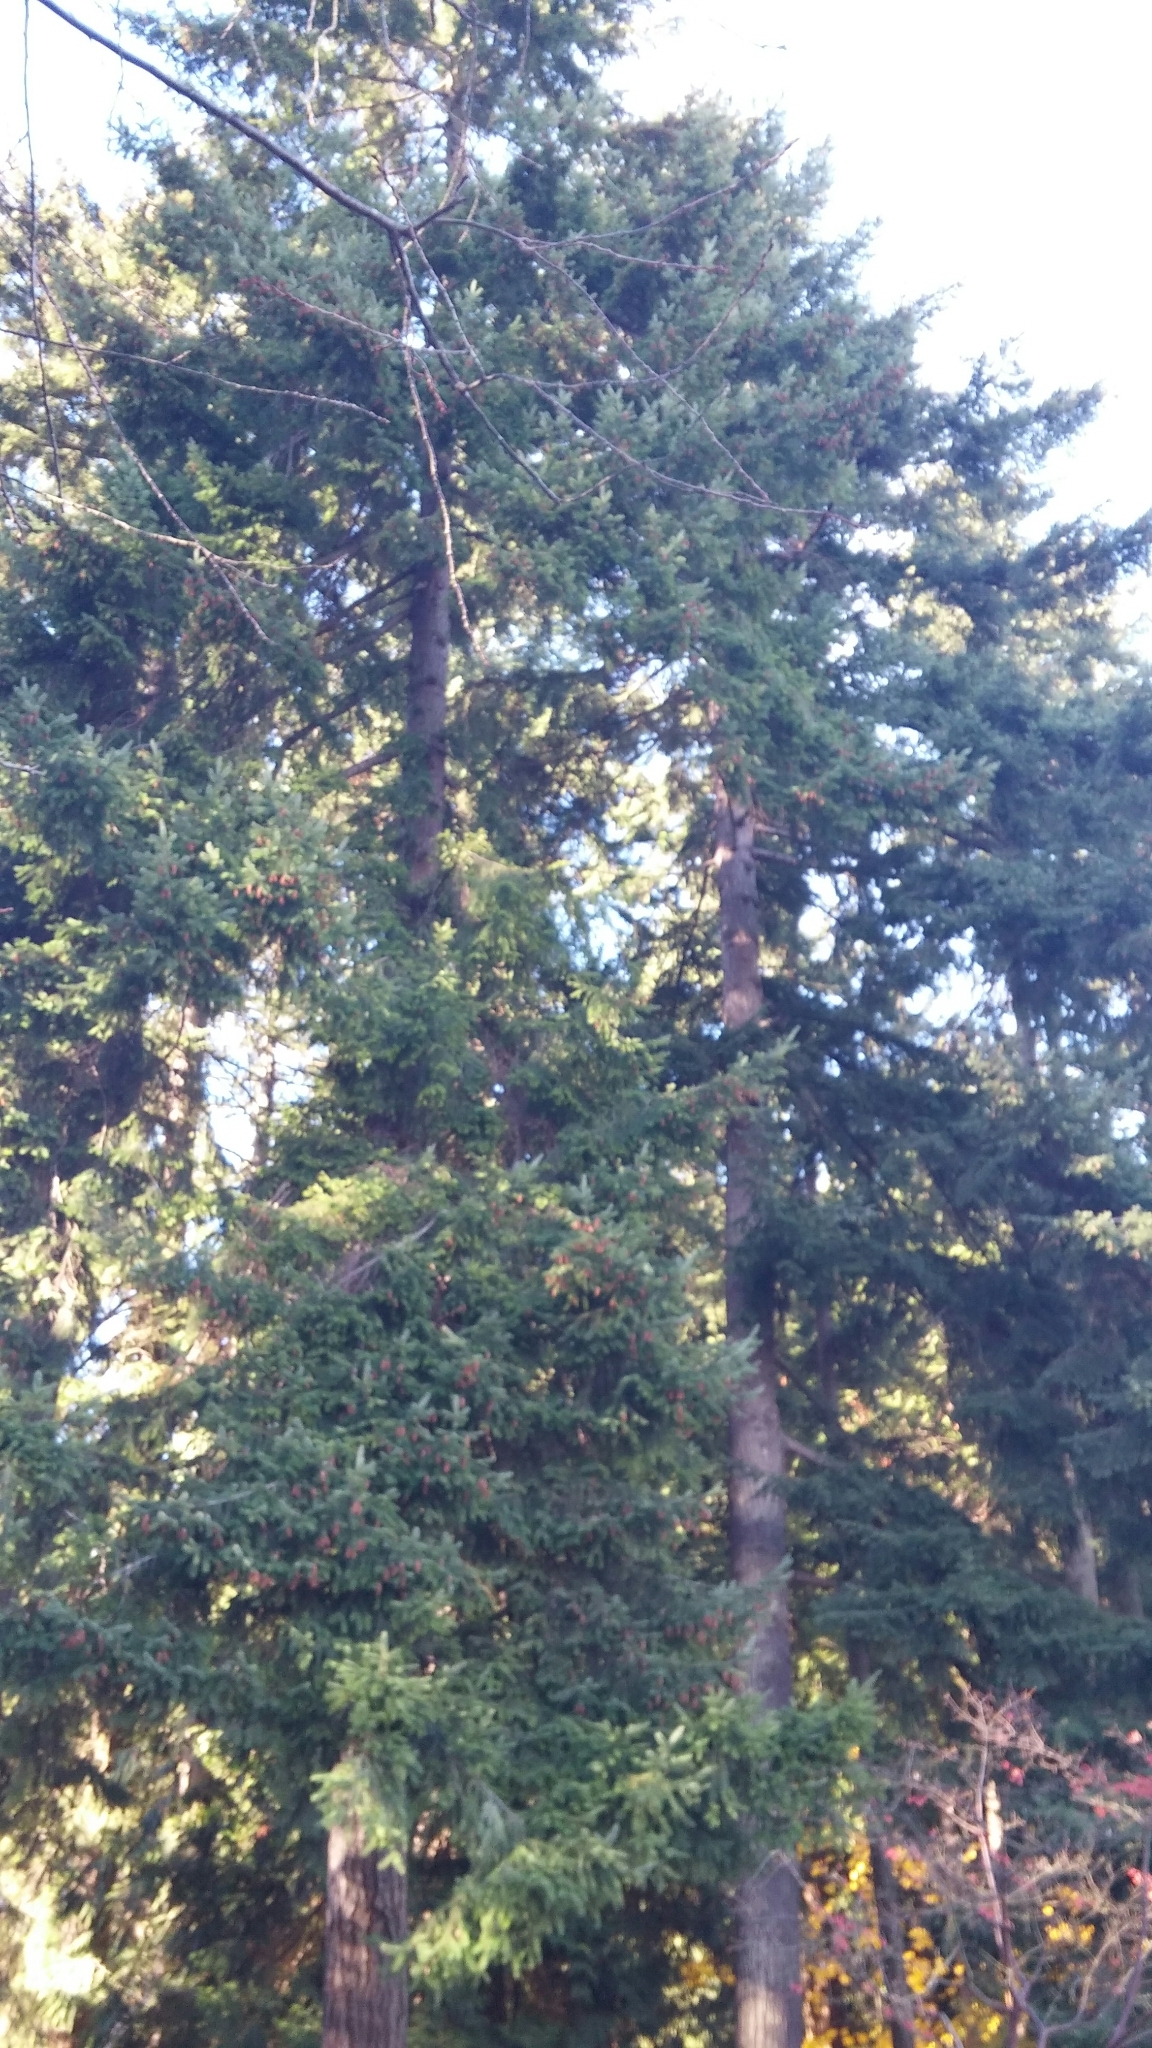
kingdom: Plantae
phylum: Tracheophyta
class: Pinopsida
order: Pinales
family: Pinaceae
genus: Pseudotsuga
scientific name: Pseudotsuga menziesii
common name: Douglas fir
